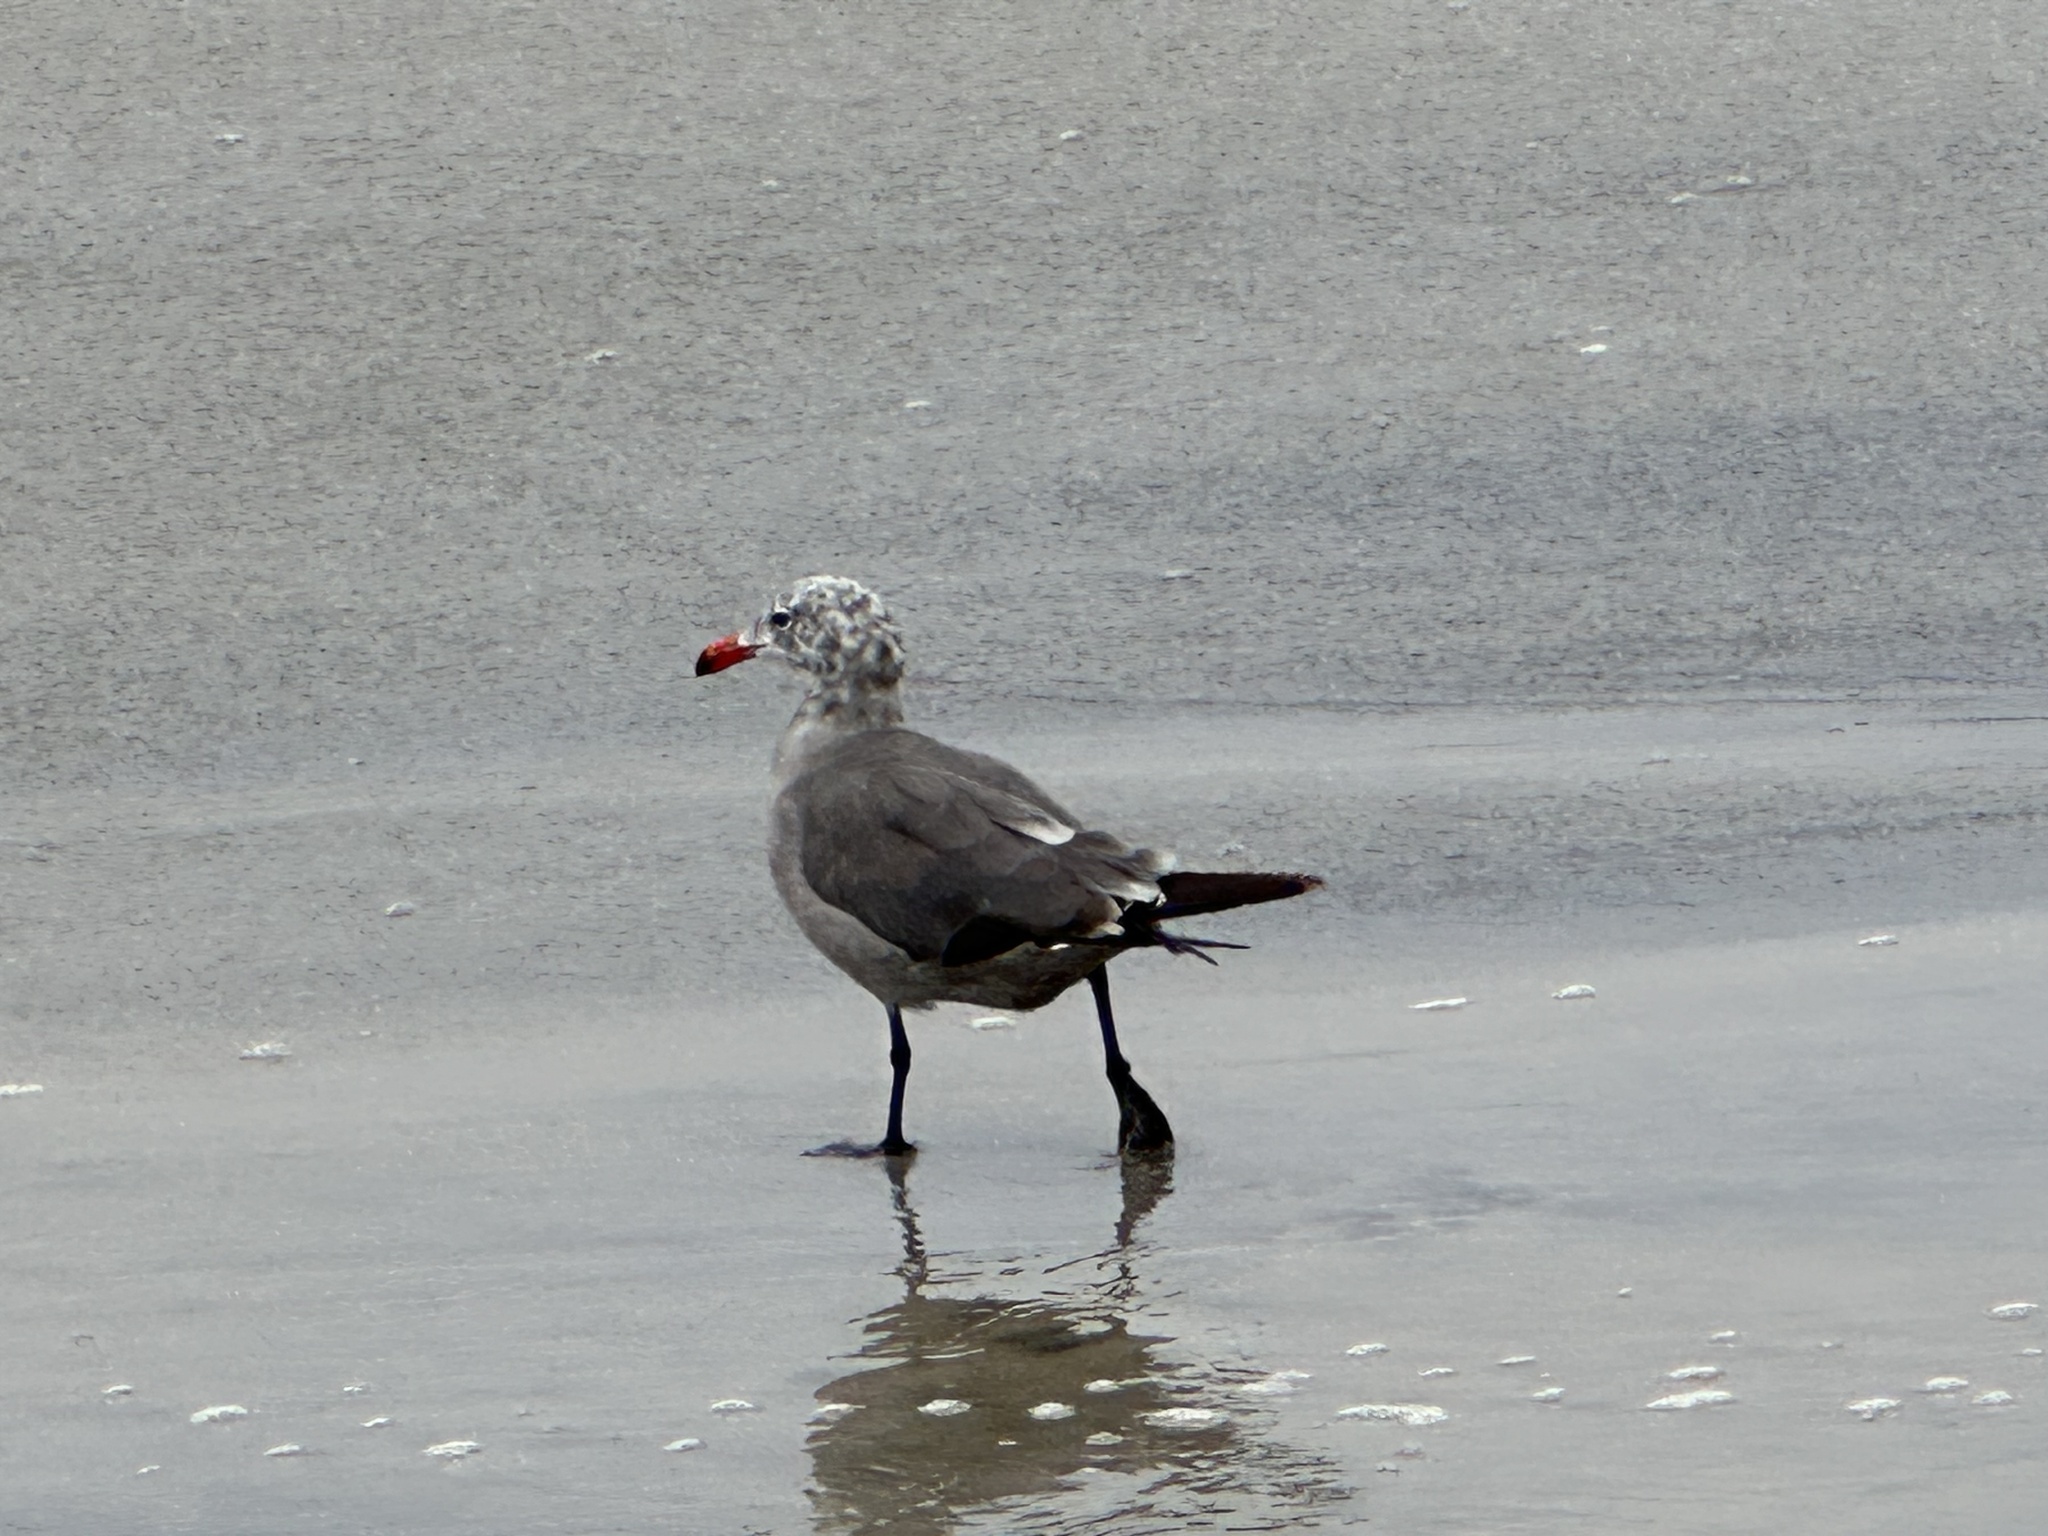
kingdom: Animalia
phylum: Chordata
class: Aves
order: Charadriiformes
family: Laridae
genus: Larus
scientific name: Larus heermanni
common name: Heermann's gull
